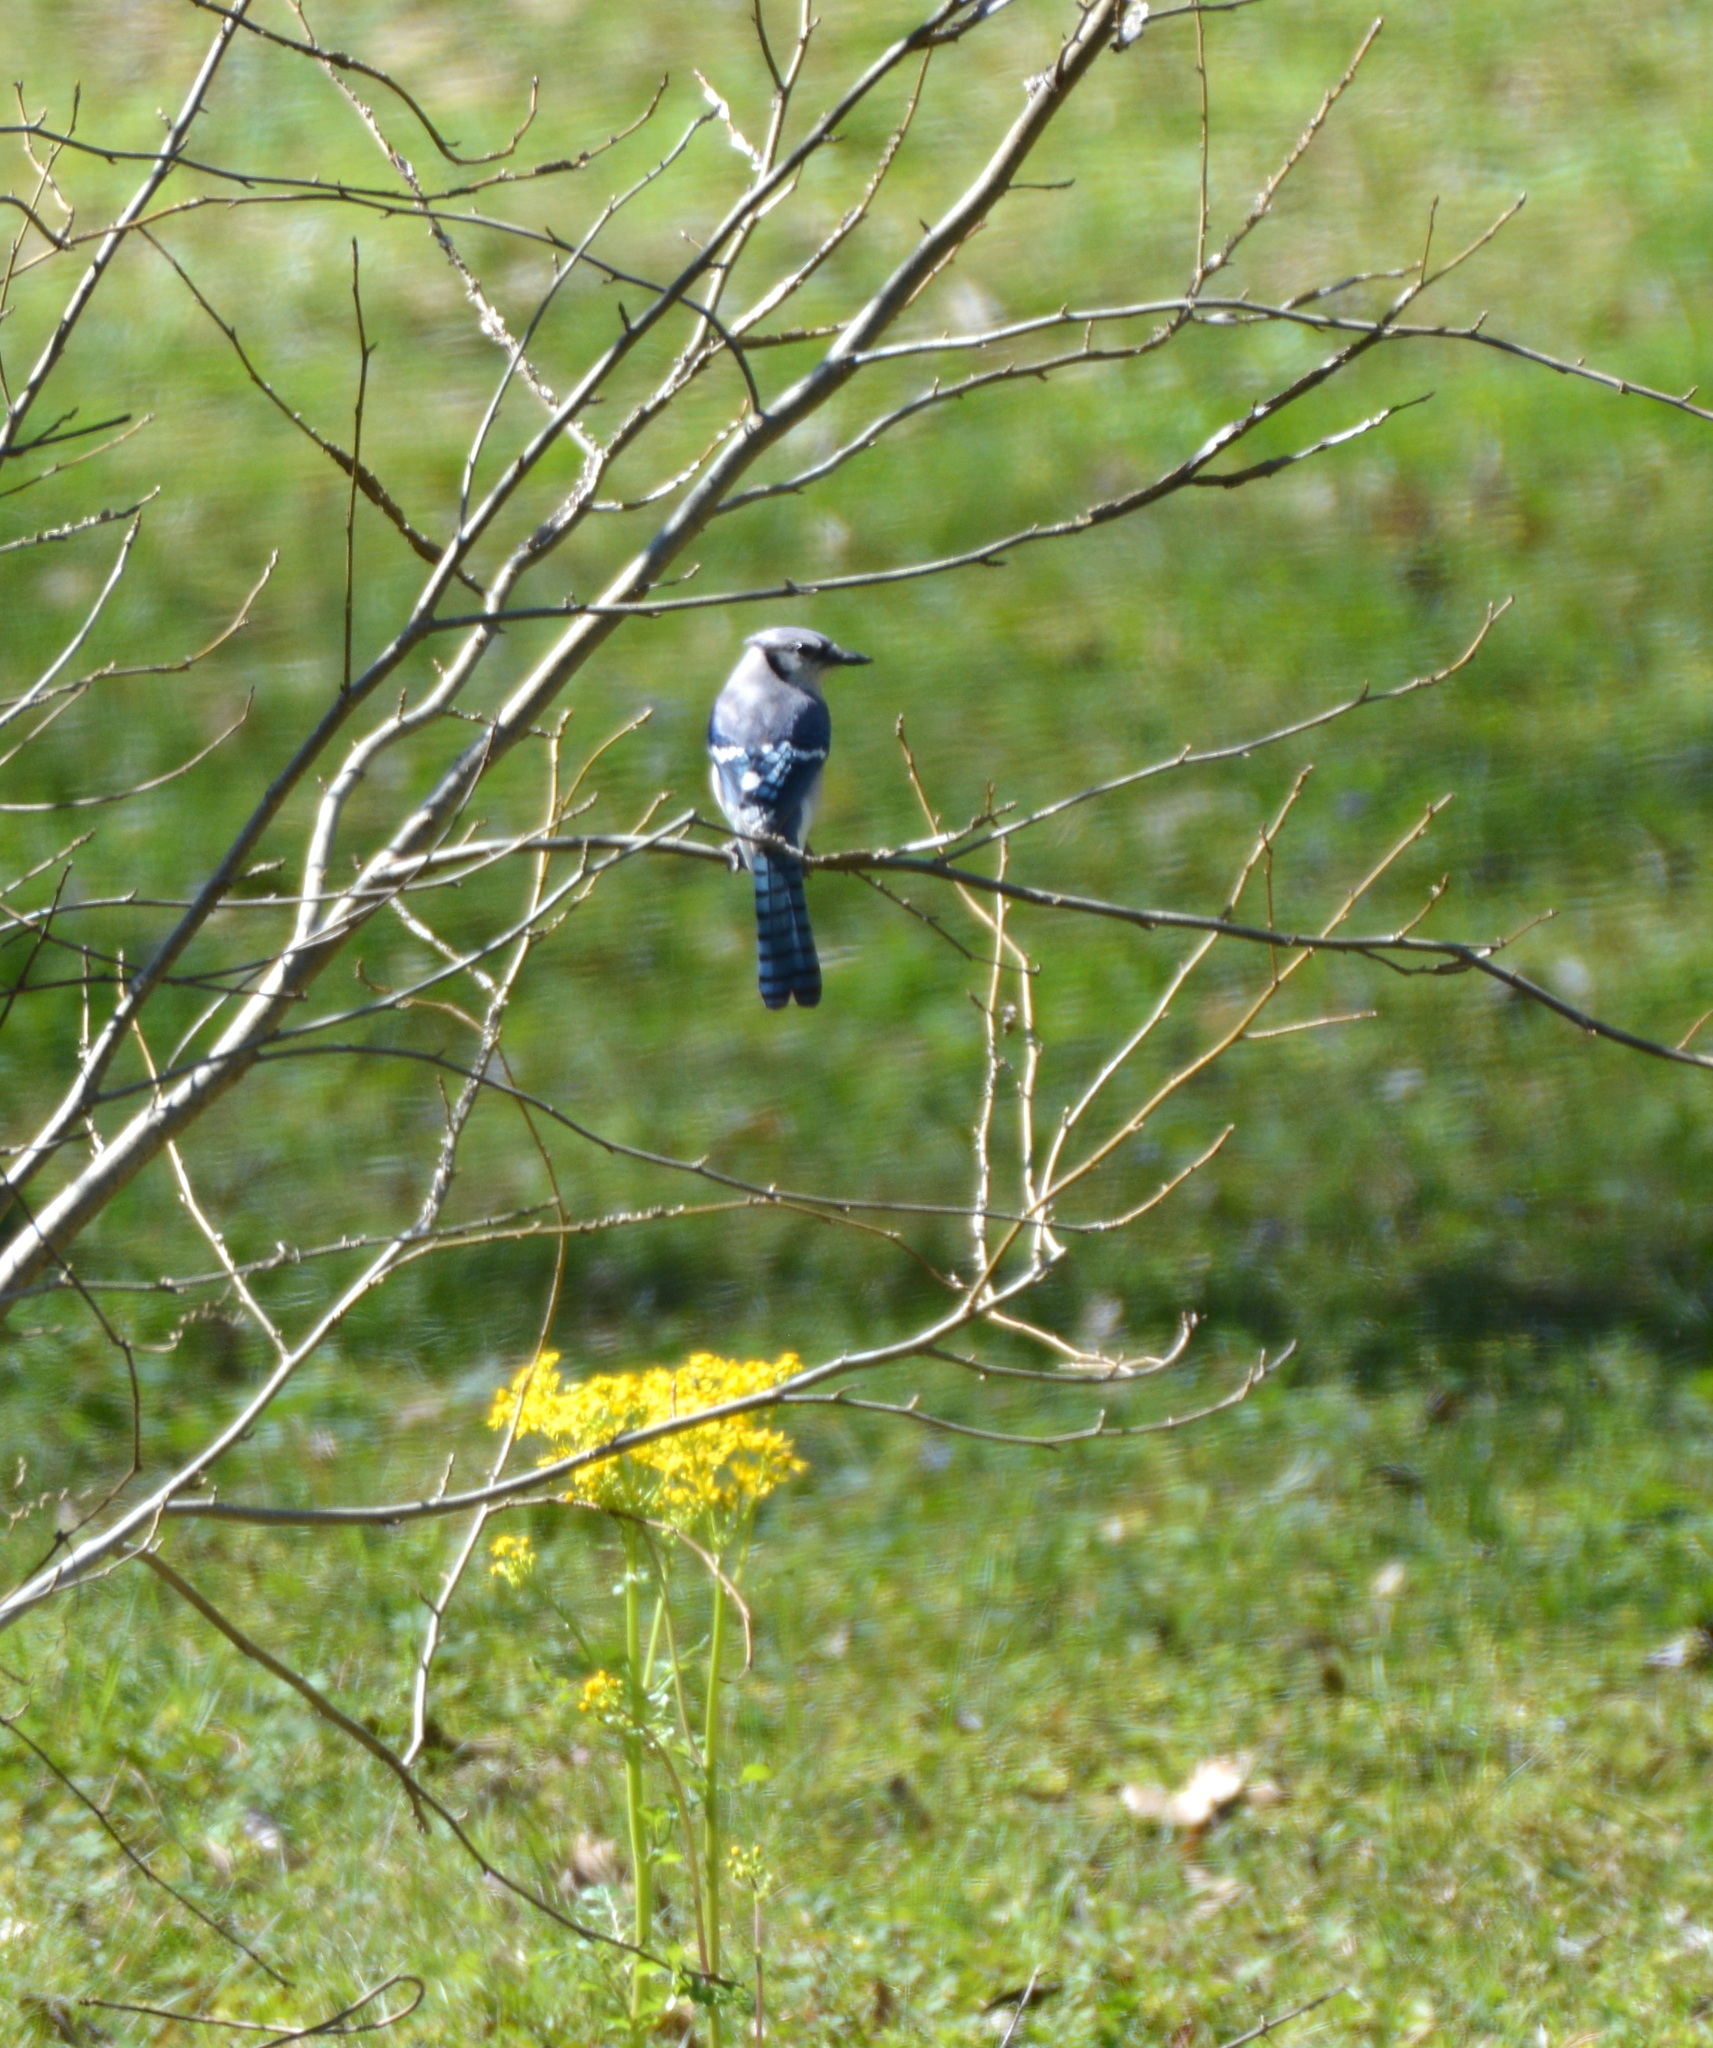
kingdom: Animalia
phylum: Chordata
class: Aves
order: Passeriformes
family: Corvidae
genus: Cyanocitta
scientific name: Cyanocitta cristata
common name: Blue jay
